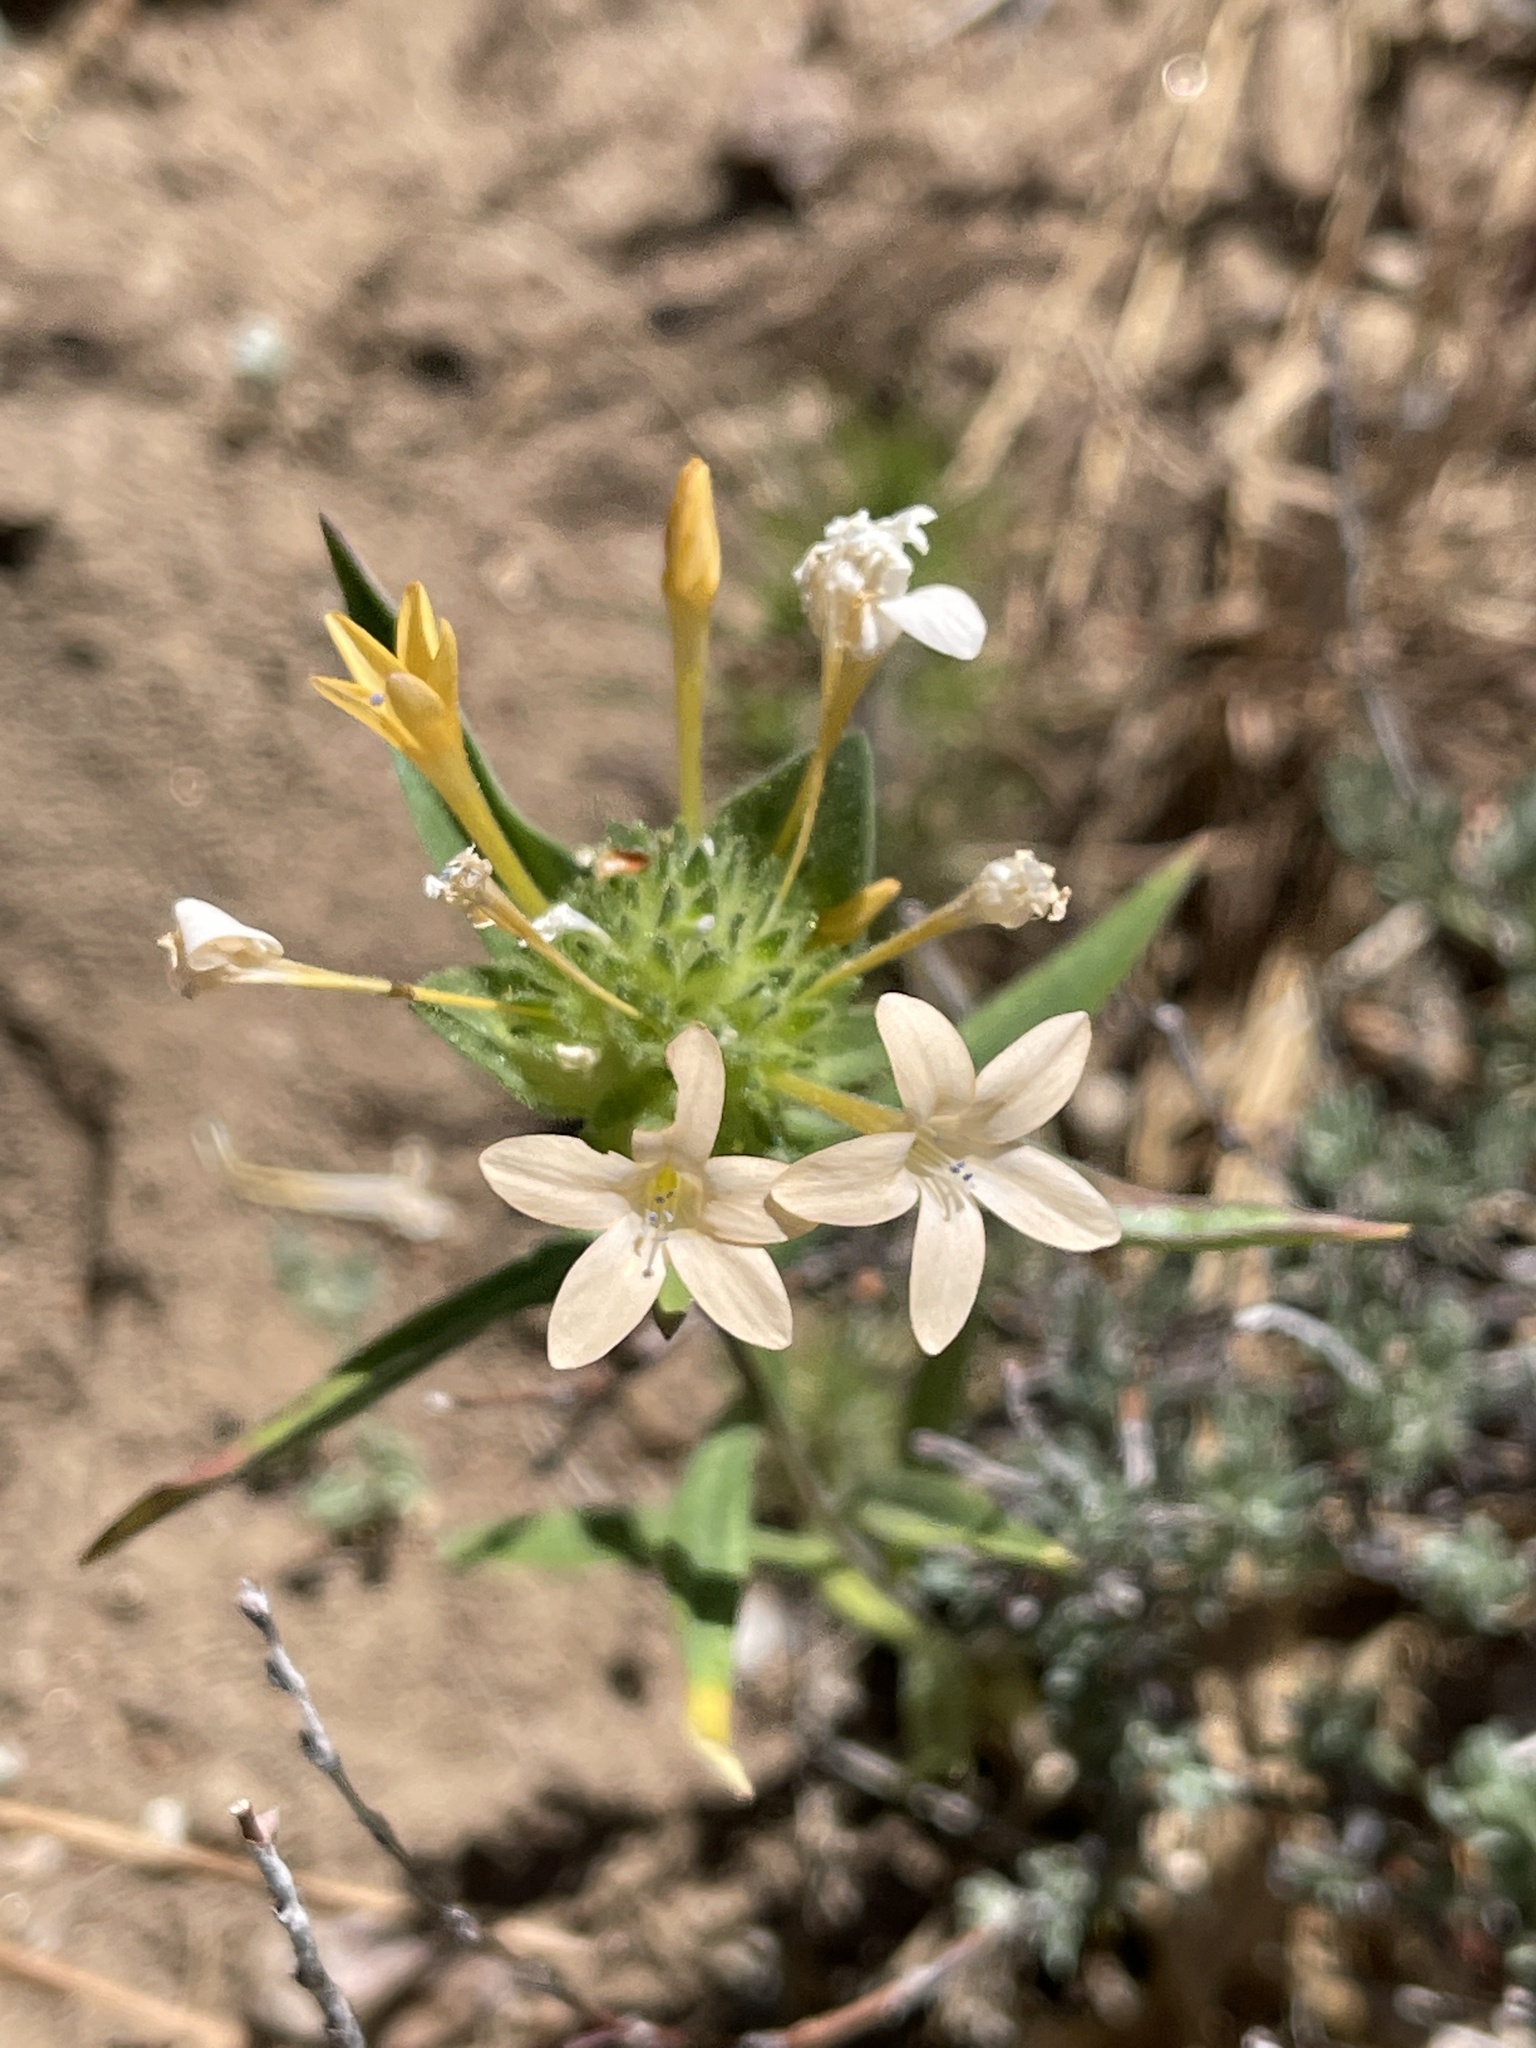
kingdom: Plantae
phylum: Tracheophyta
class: Magnoliopsida
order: Ericales
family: Polemoniaceae
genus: Collomia
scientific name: Collomia grandiflora
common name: California strawflower
